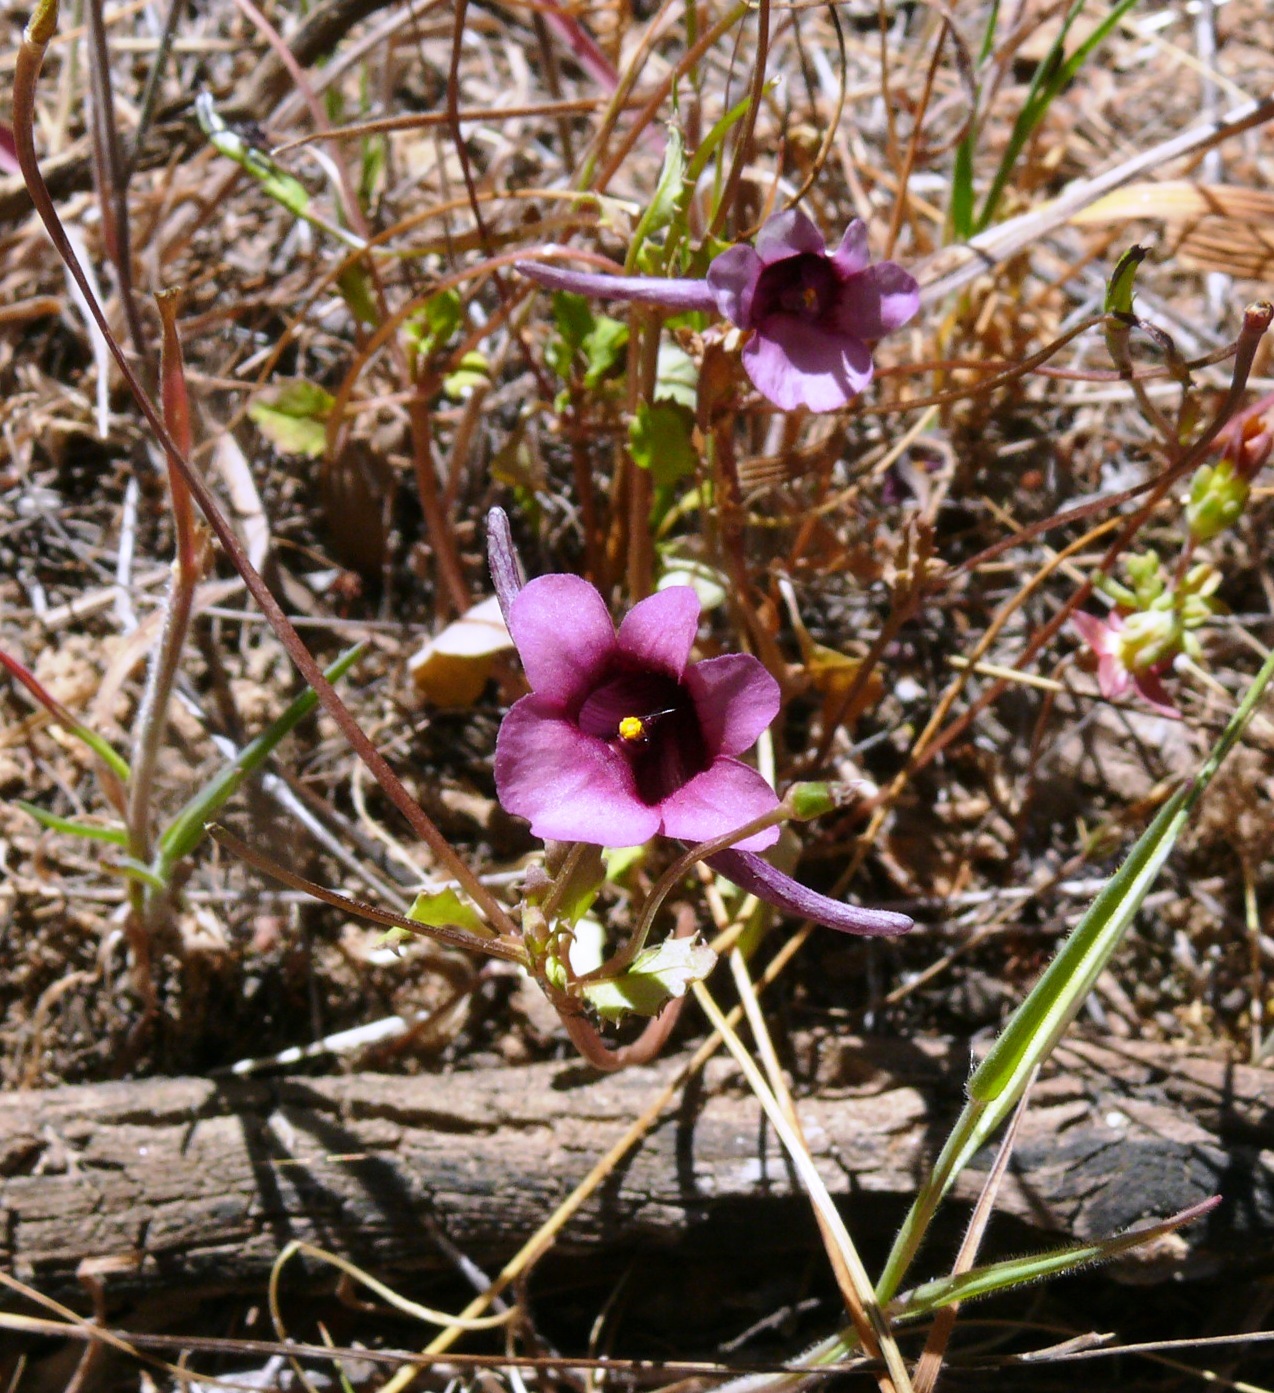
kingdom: Plantae
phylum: Tracheophyta
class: Magnoliopsida
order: Lamiales
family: Scrophulariaceae
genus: Diascia
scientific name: Diascia whiteheadii
